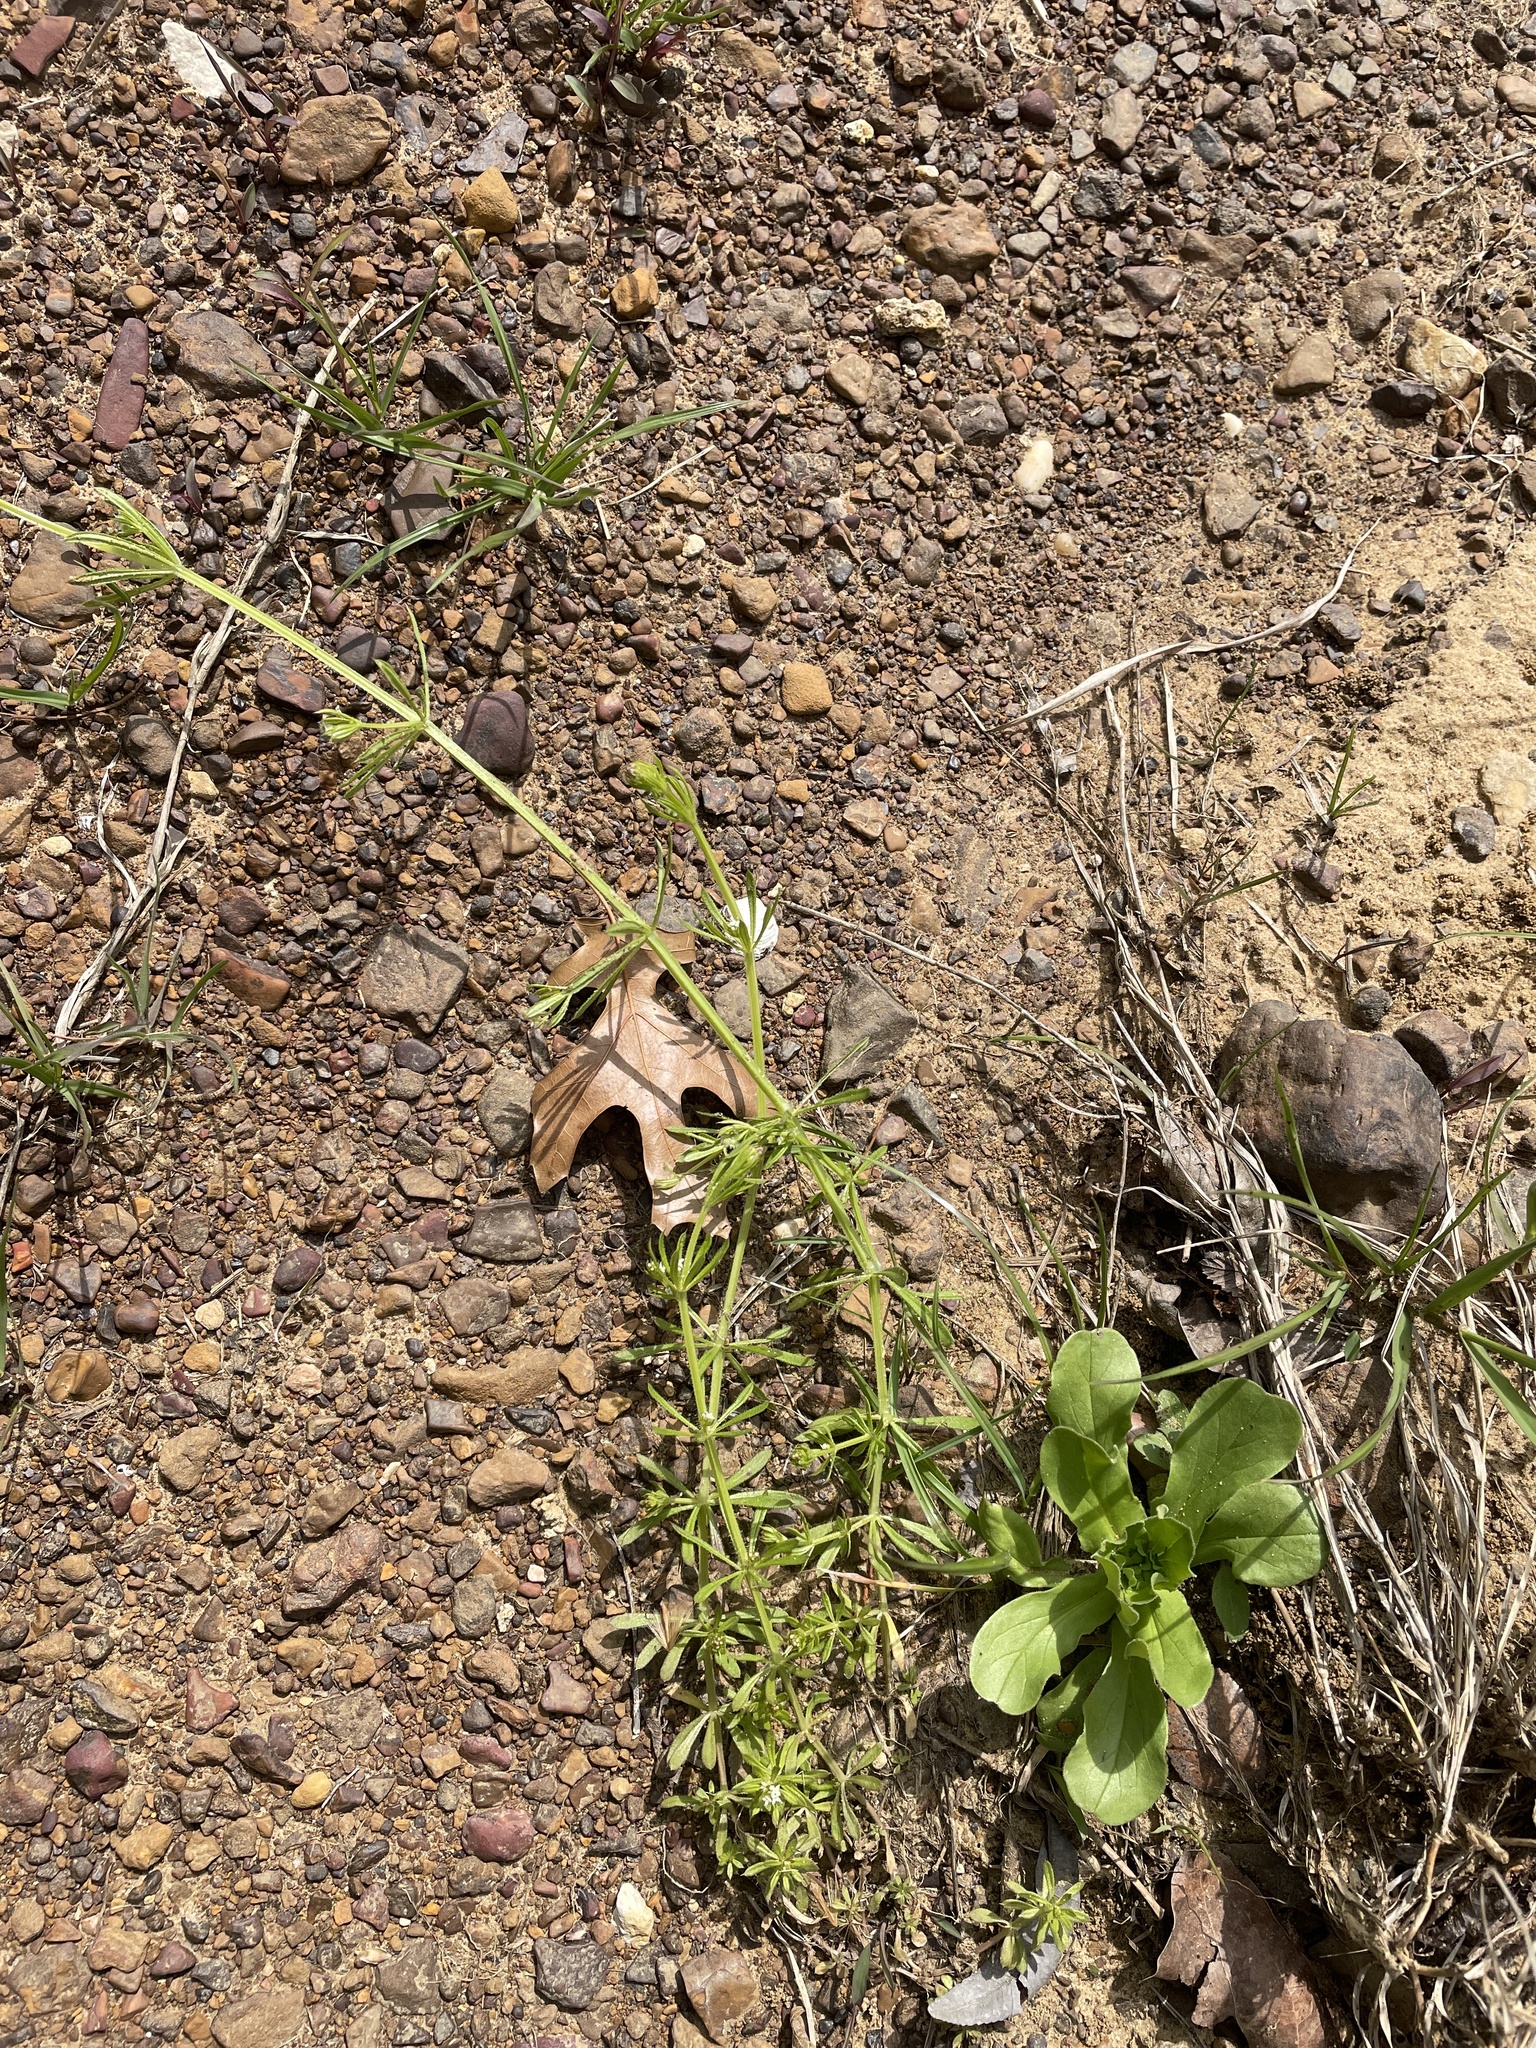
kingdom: Plantae
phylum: Tracheophyta
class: Magnoliopsida
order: Gentianales
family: Rubiaceae
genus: Galium
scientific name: Galium aparine
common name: Cleavers
